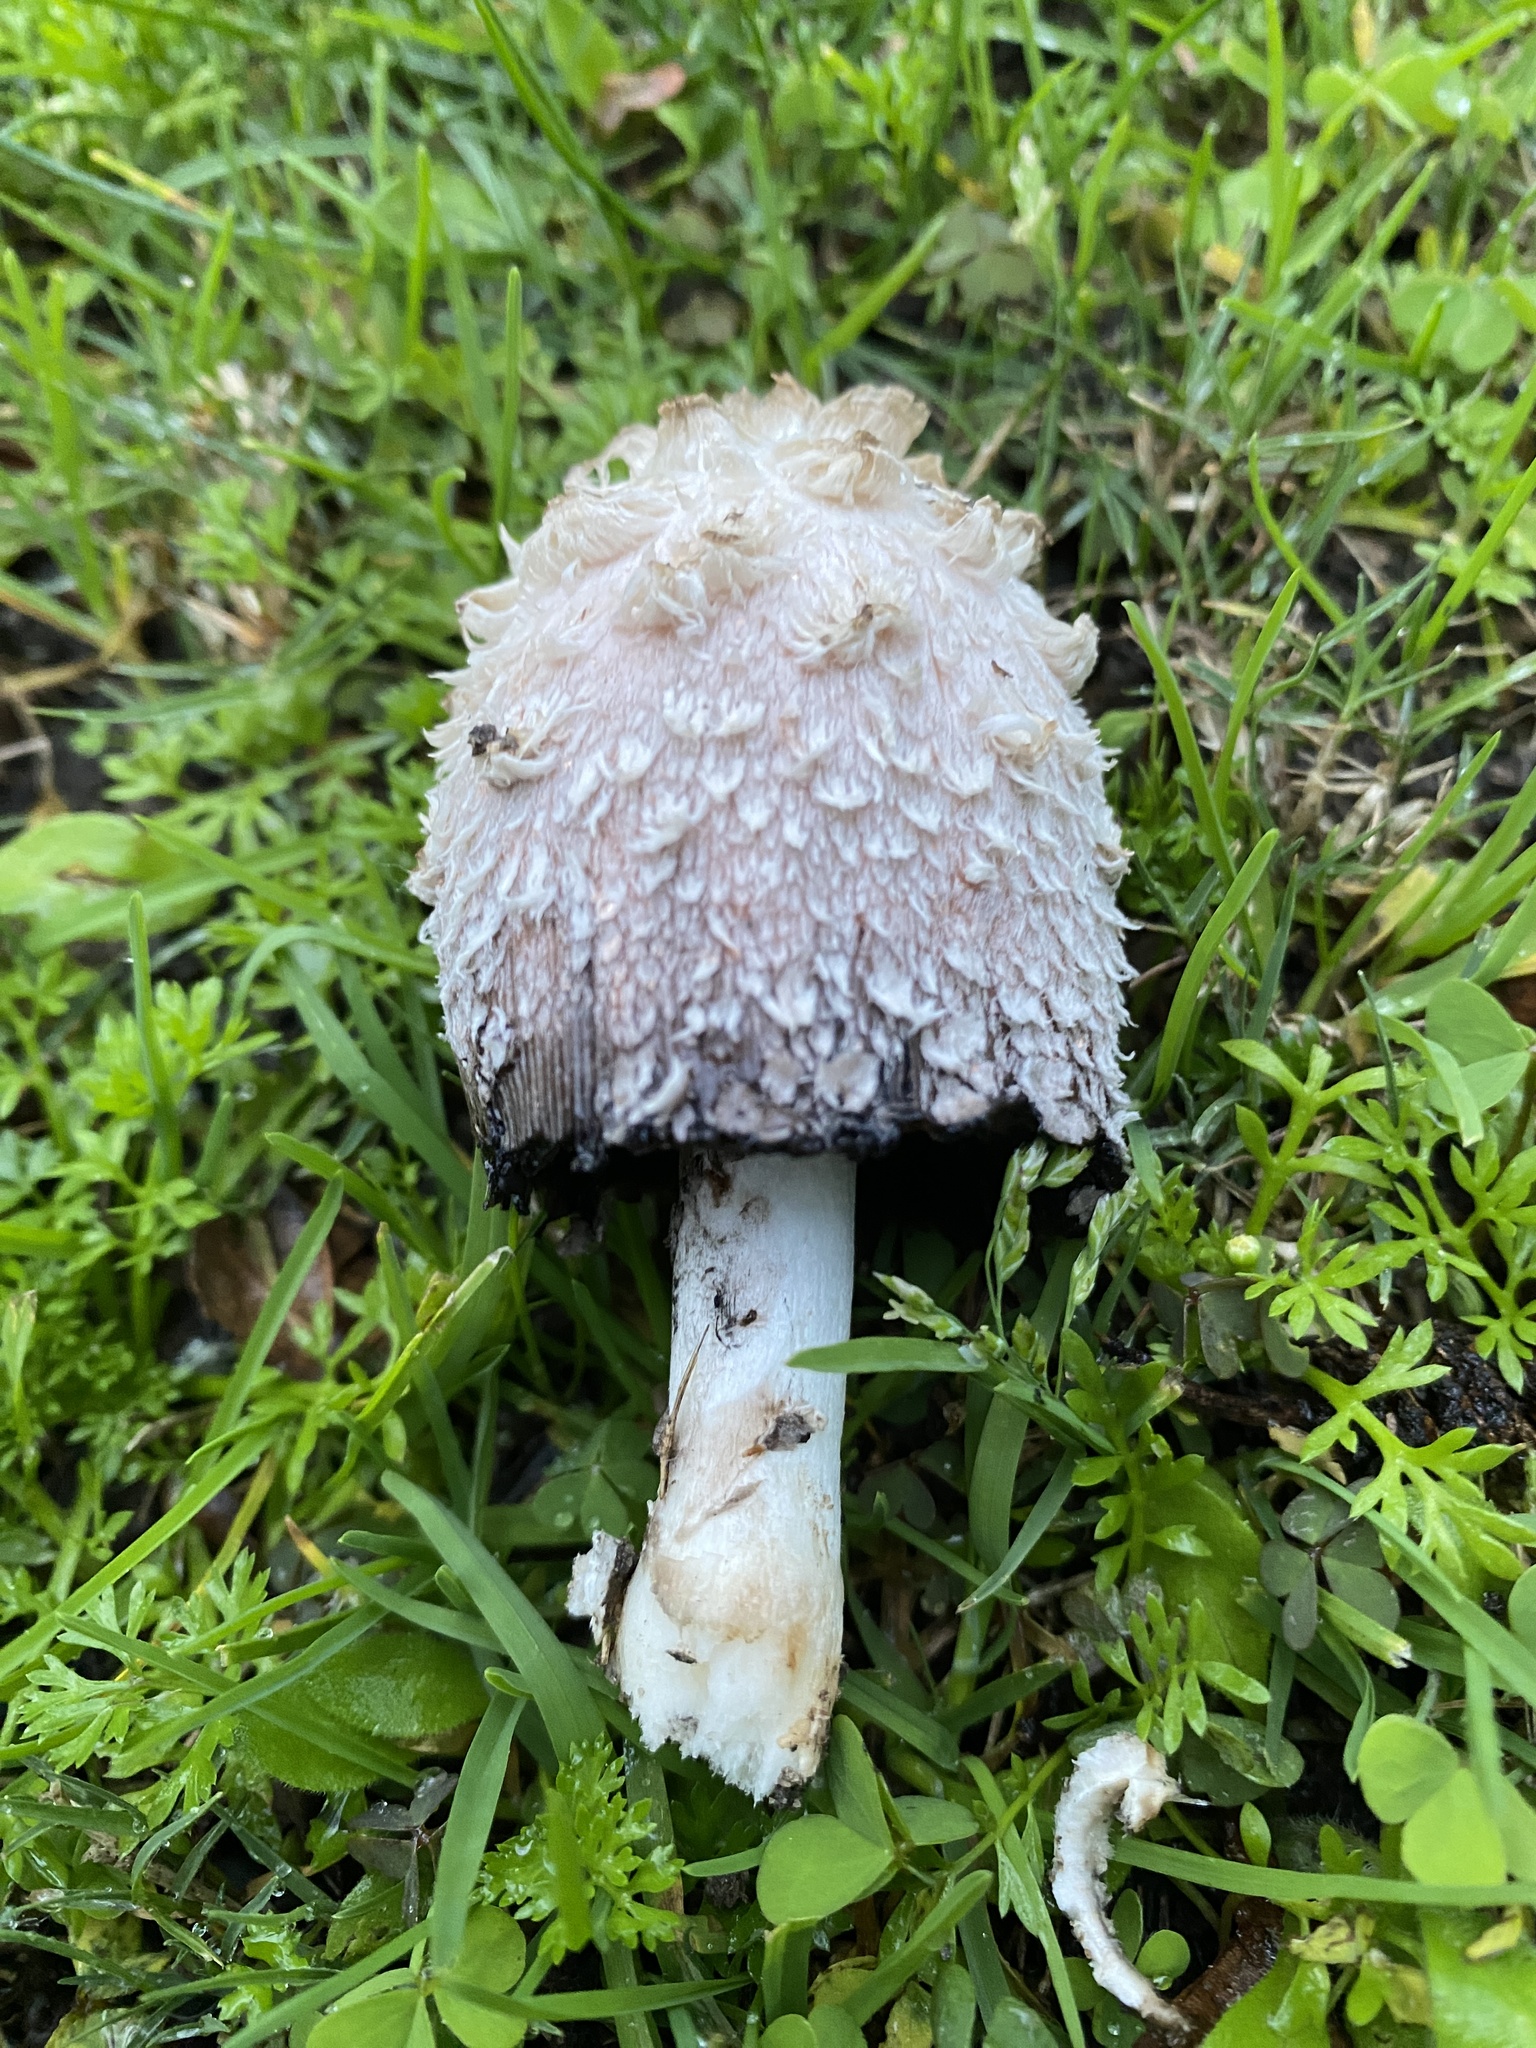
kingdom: Fungi
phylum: Basidiomycota
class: Agaricomycetes
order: Agaricales
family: Agaricaceae
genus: Coprinus
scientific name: Coprinus comatus
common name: Lawyer's wig
